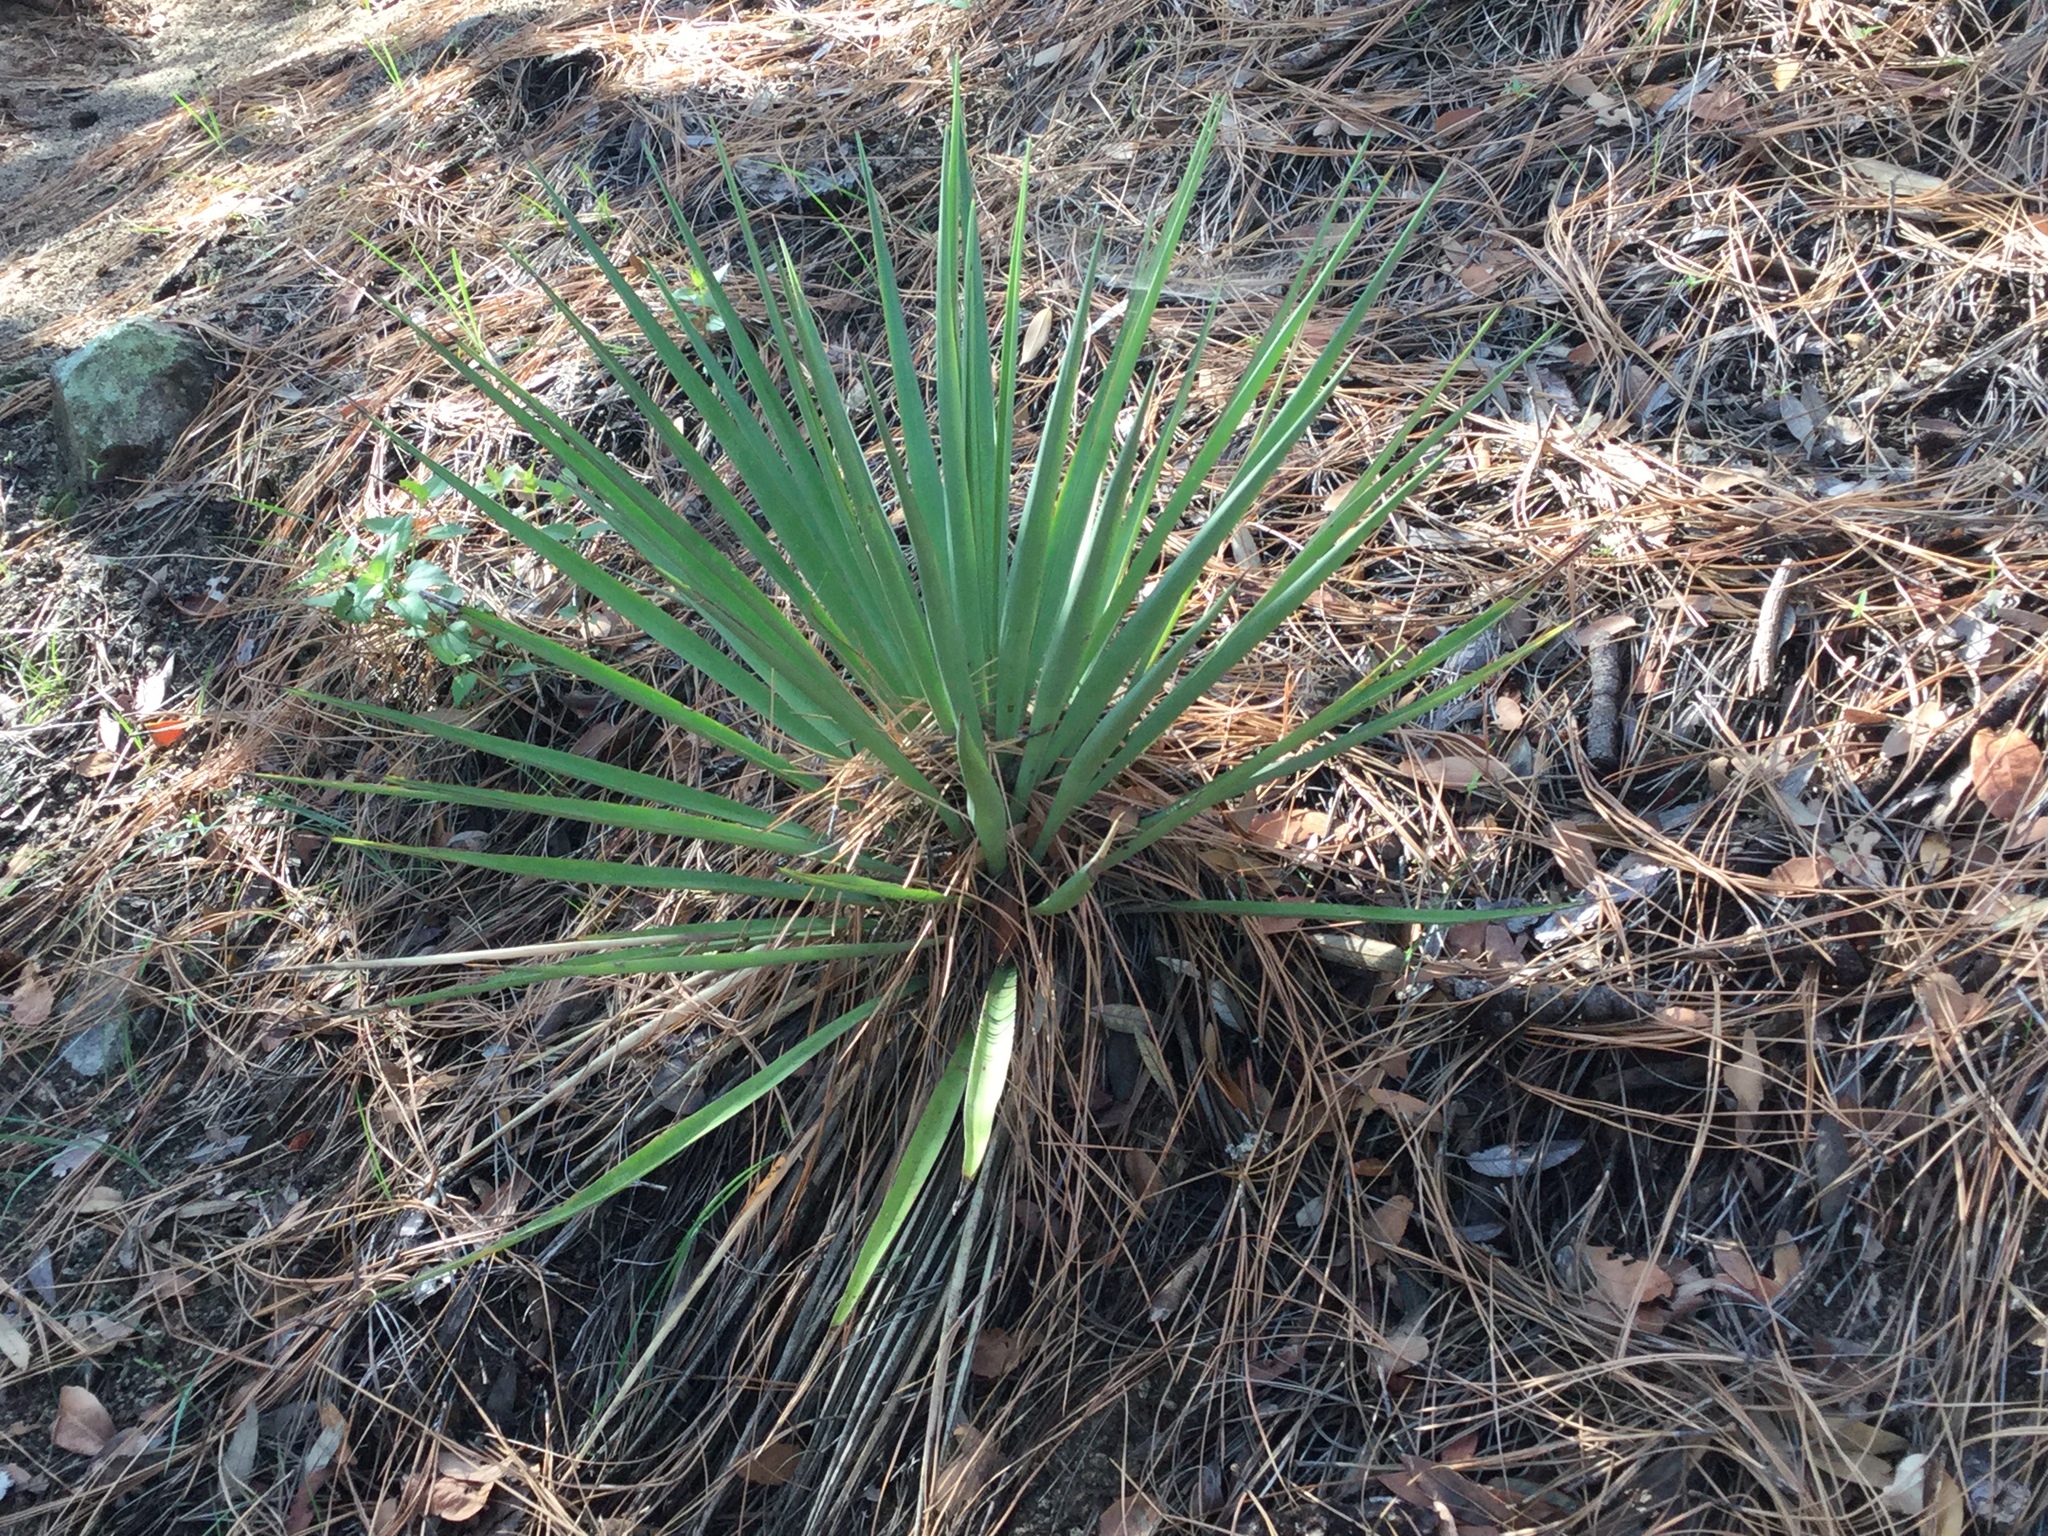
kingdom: Plantae
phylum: Tracheophyta
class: Liliopsida
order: Asparagales
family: Asparagaceae
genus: Yucca
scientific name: Yucca madrensis
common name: Hoary yucca
